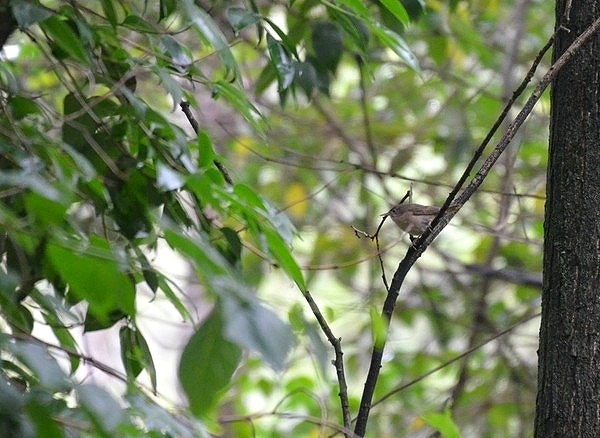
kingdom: Animalia
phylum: Chordata
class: Aves
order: Passeriformes
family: Troglodytidae
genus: Troglodytes
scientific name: Troglodytes aedon
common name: House wren
